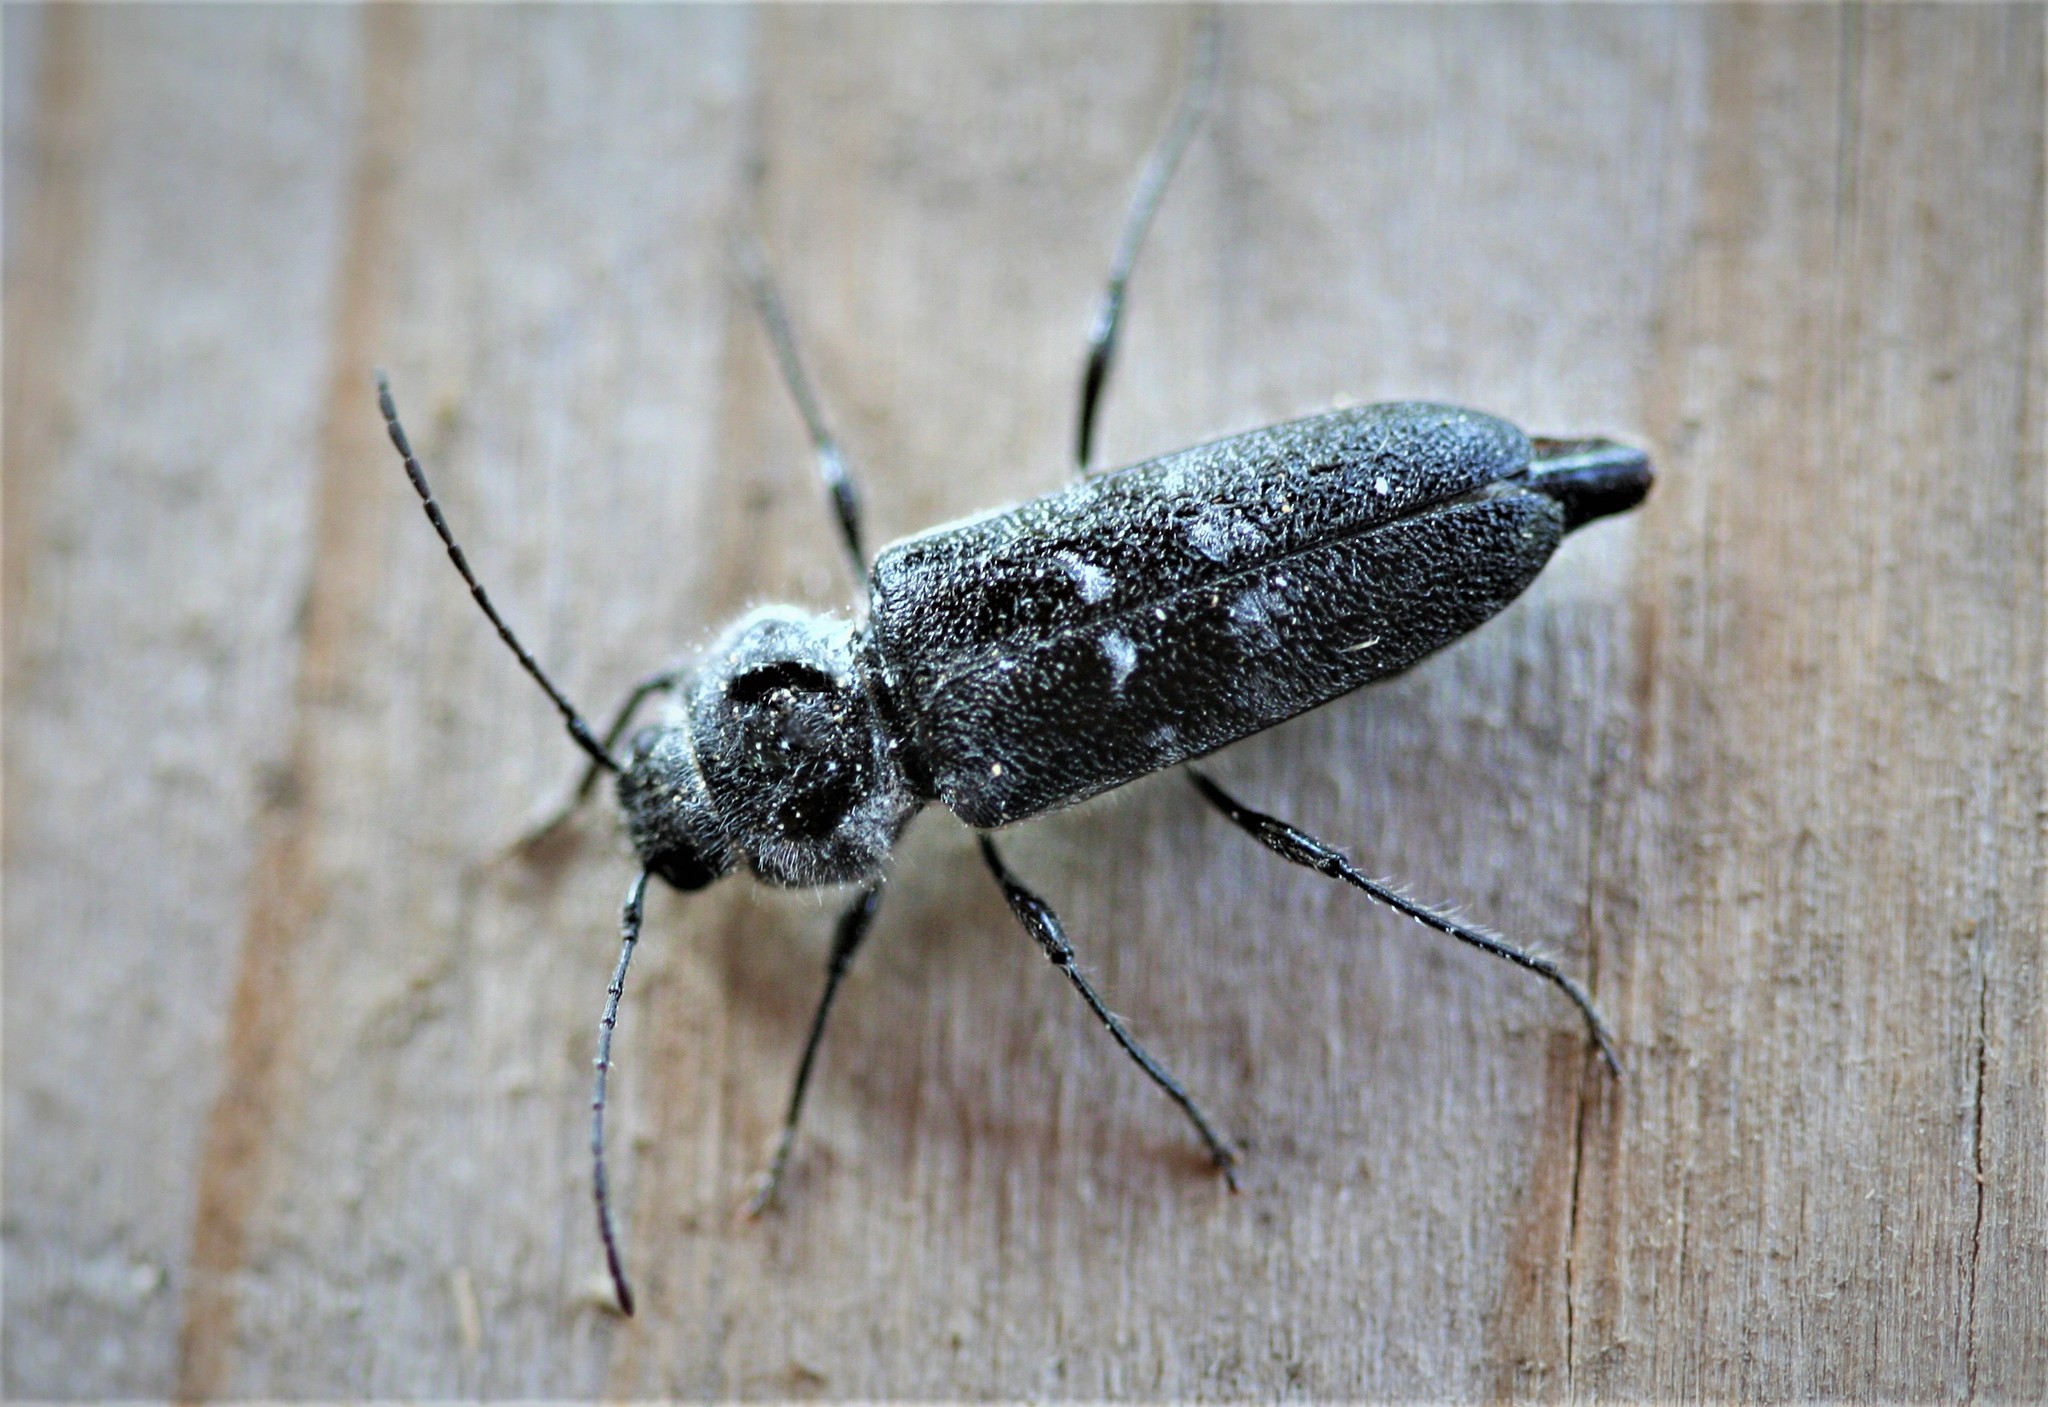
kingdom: Animalia
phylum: Arthropoda
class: Insecta
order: Coleoptera
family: Cerambycidae
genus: Hylotrupes
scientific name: Hylotrupes bajulus
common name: Old house borer
